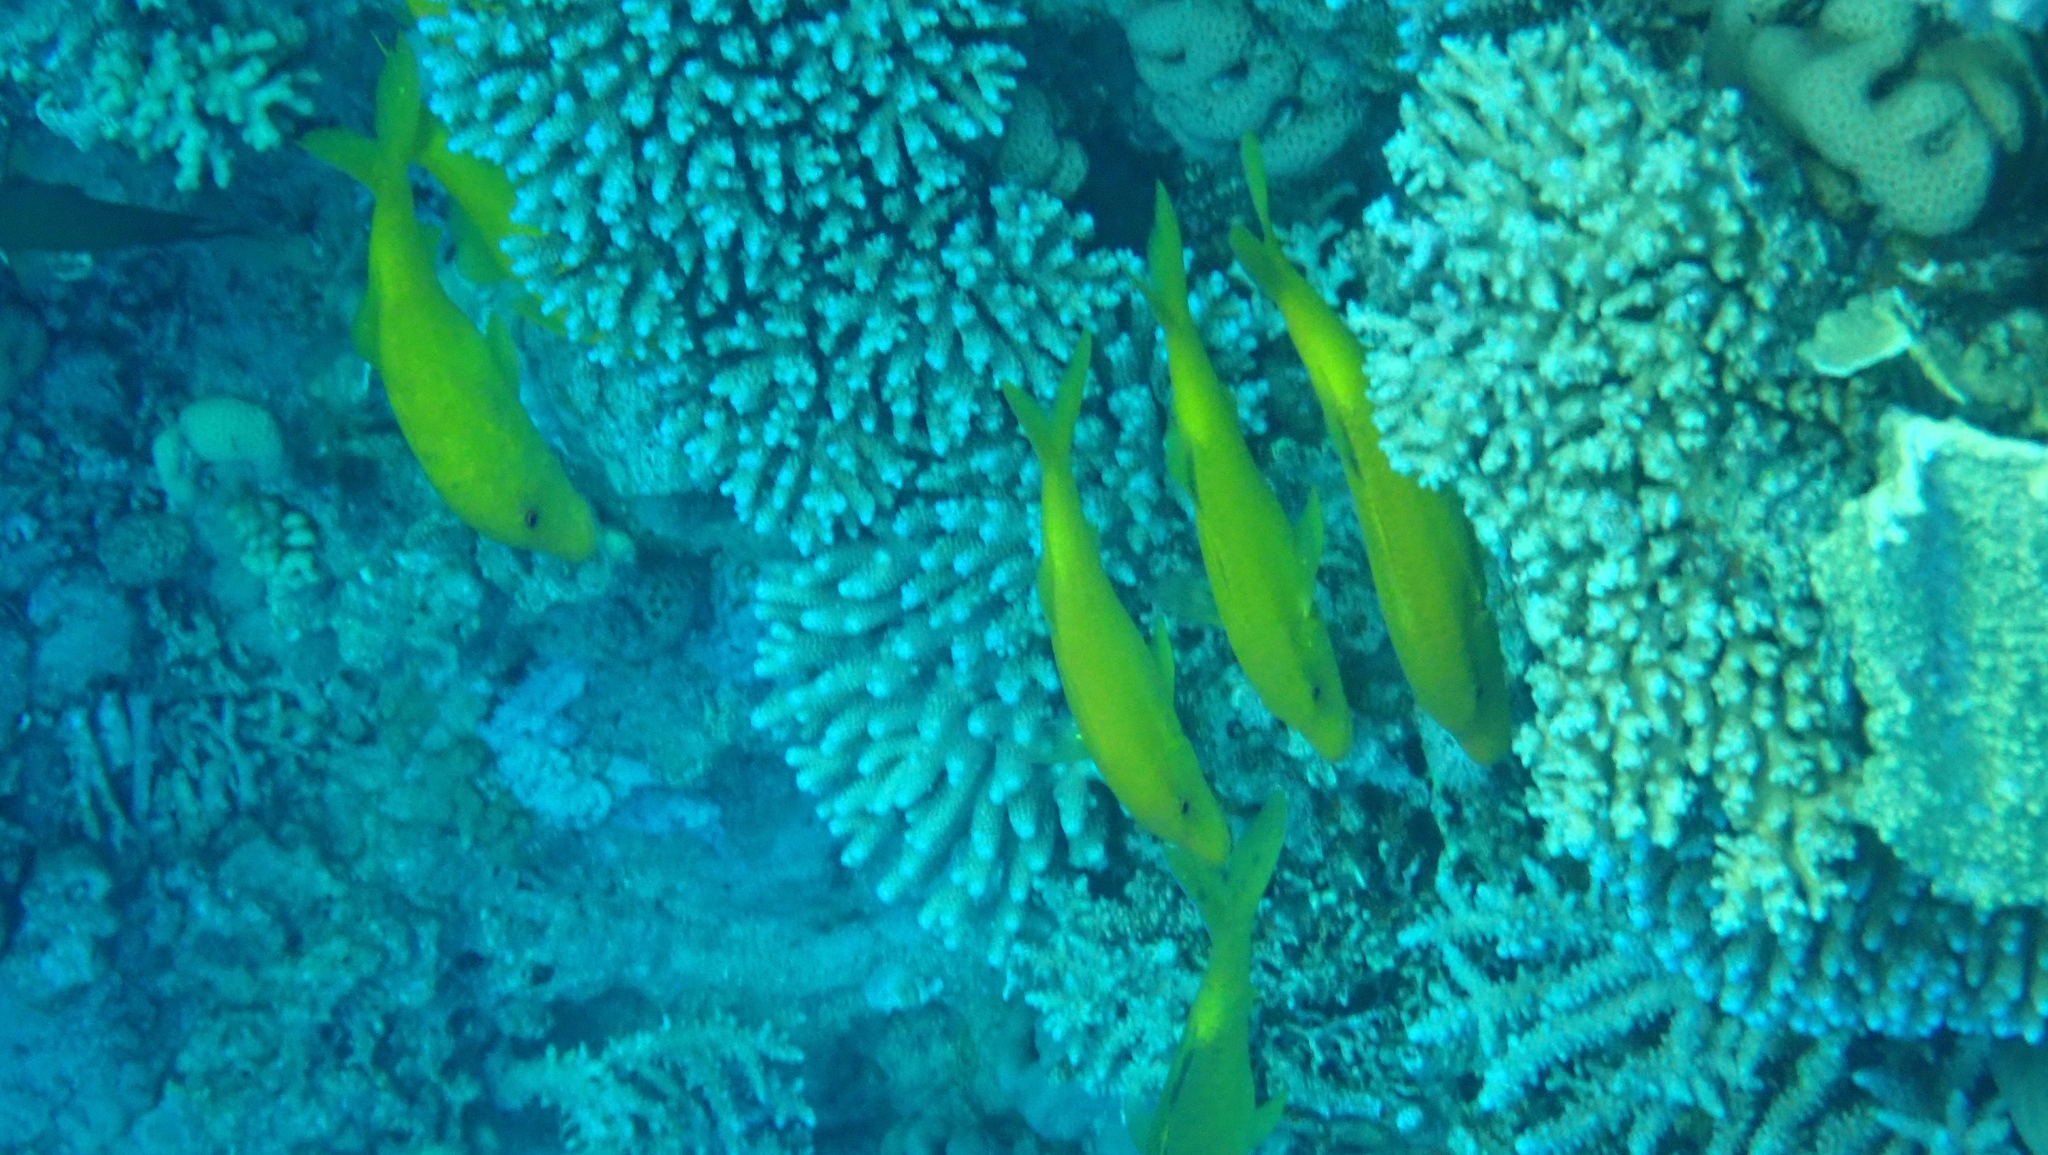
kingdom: Animalia
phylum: Chordata
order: Perciformes
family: Mullidae
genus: Parupeneus
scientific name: Parupeneus cyclostomus
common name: Goldsaddle goatfish
